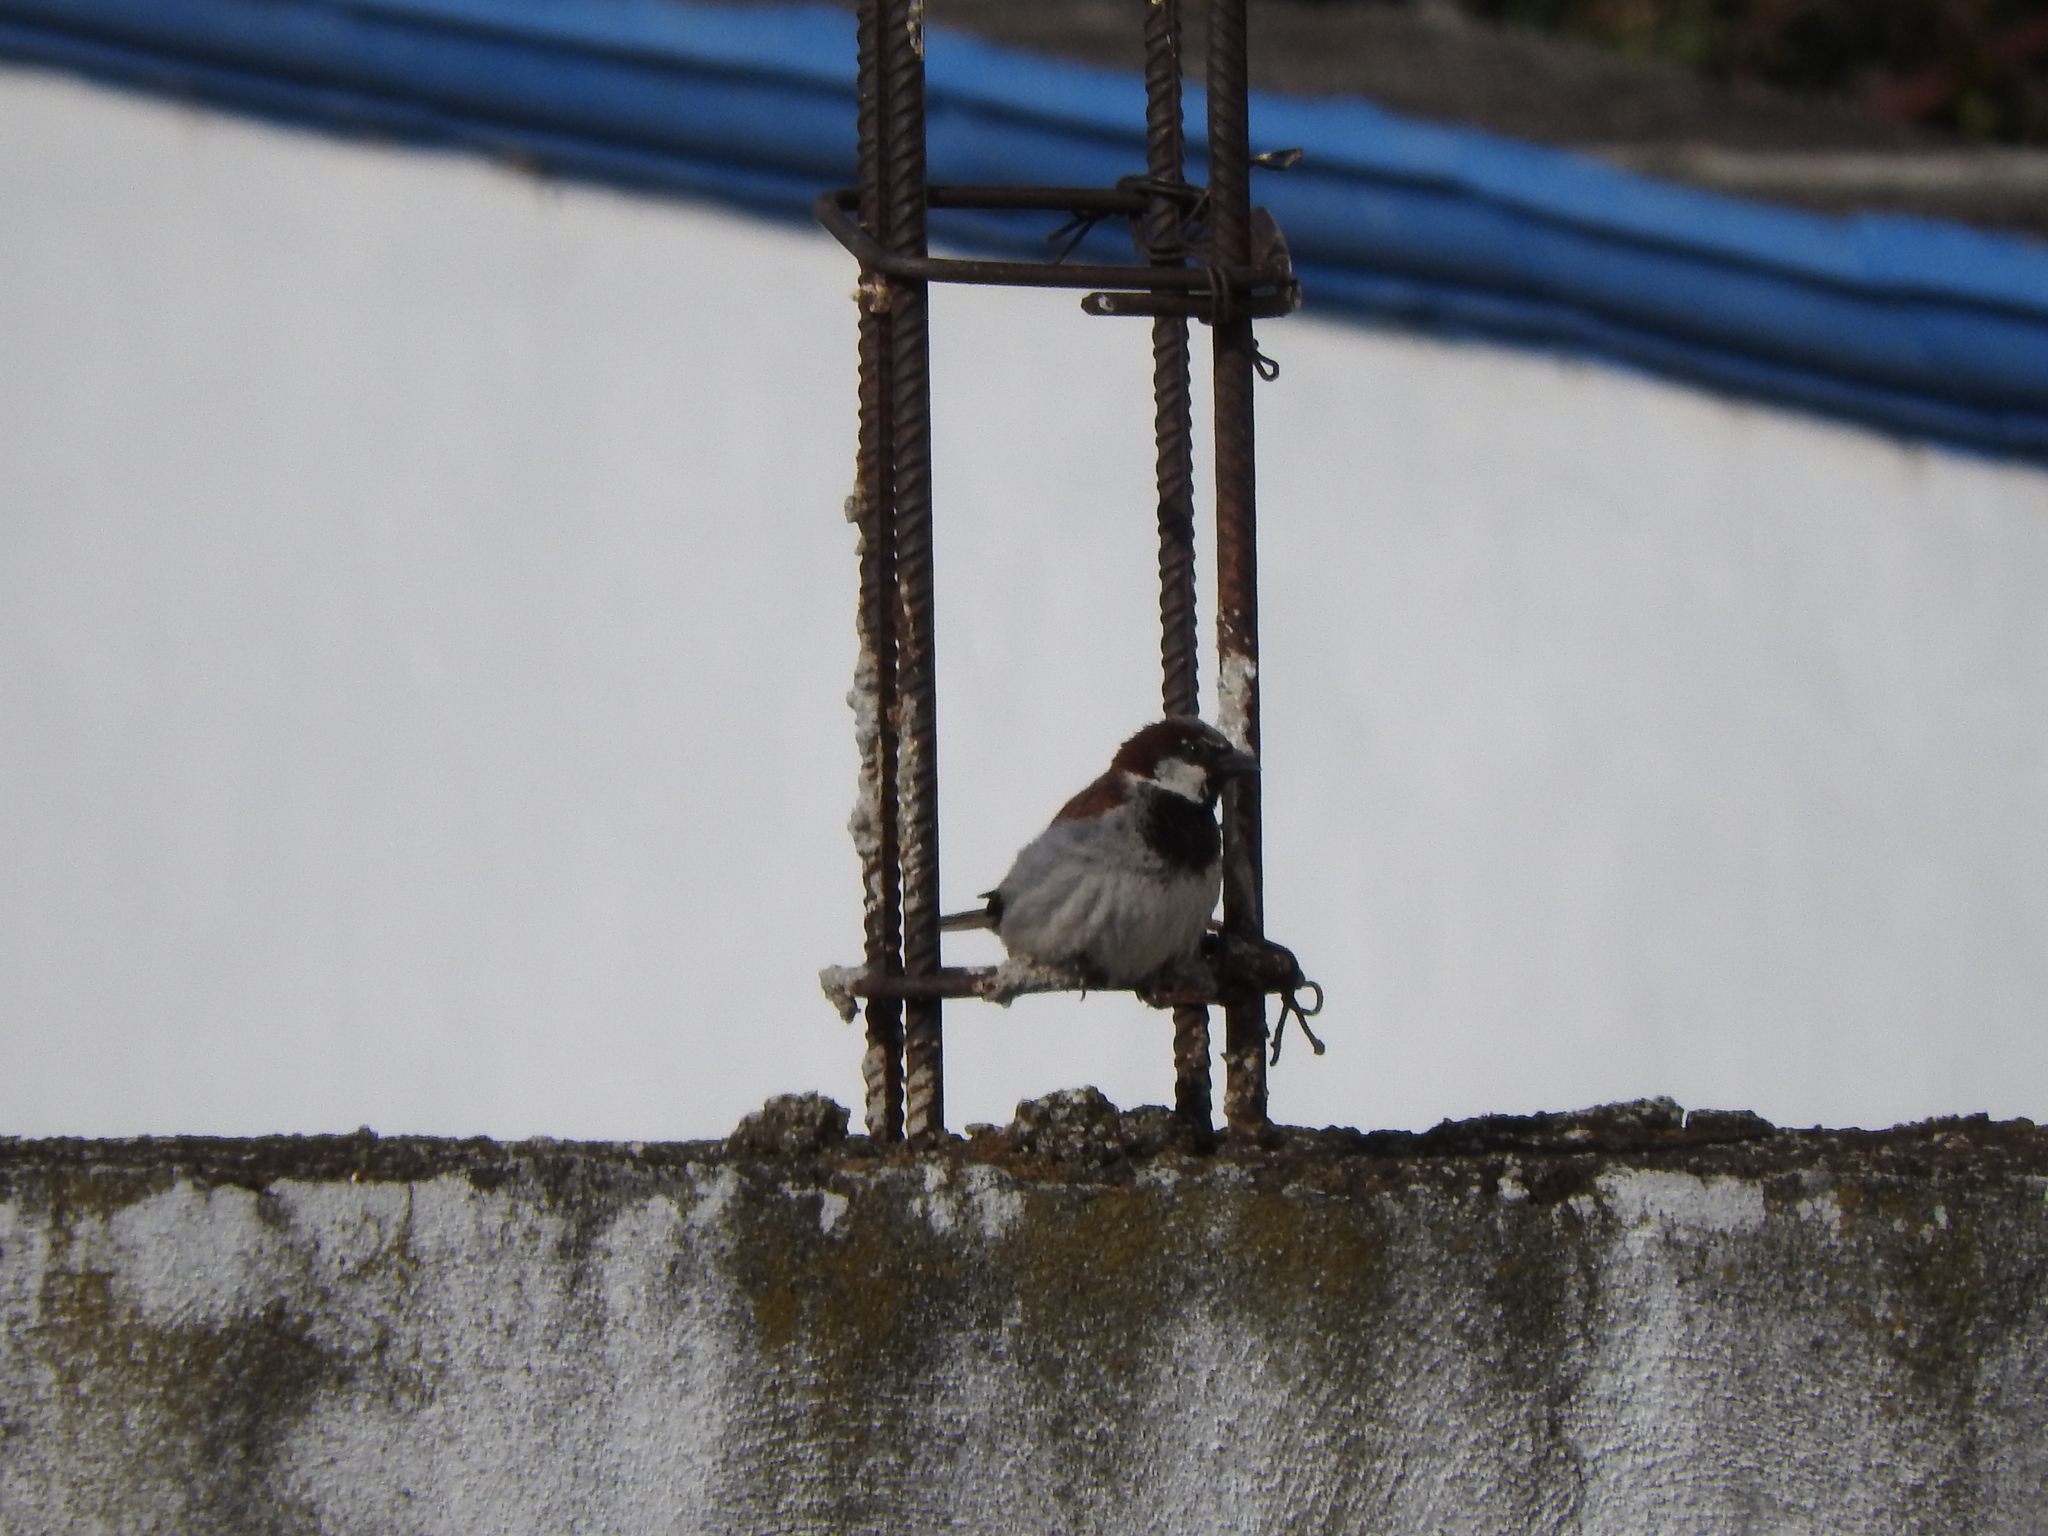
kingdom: Animalia
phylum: Chordata
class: Aves
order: Passeriformes
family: Passeridae
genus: Passer
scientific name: Passer domesticus
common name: House sparrow
